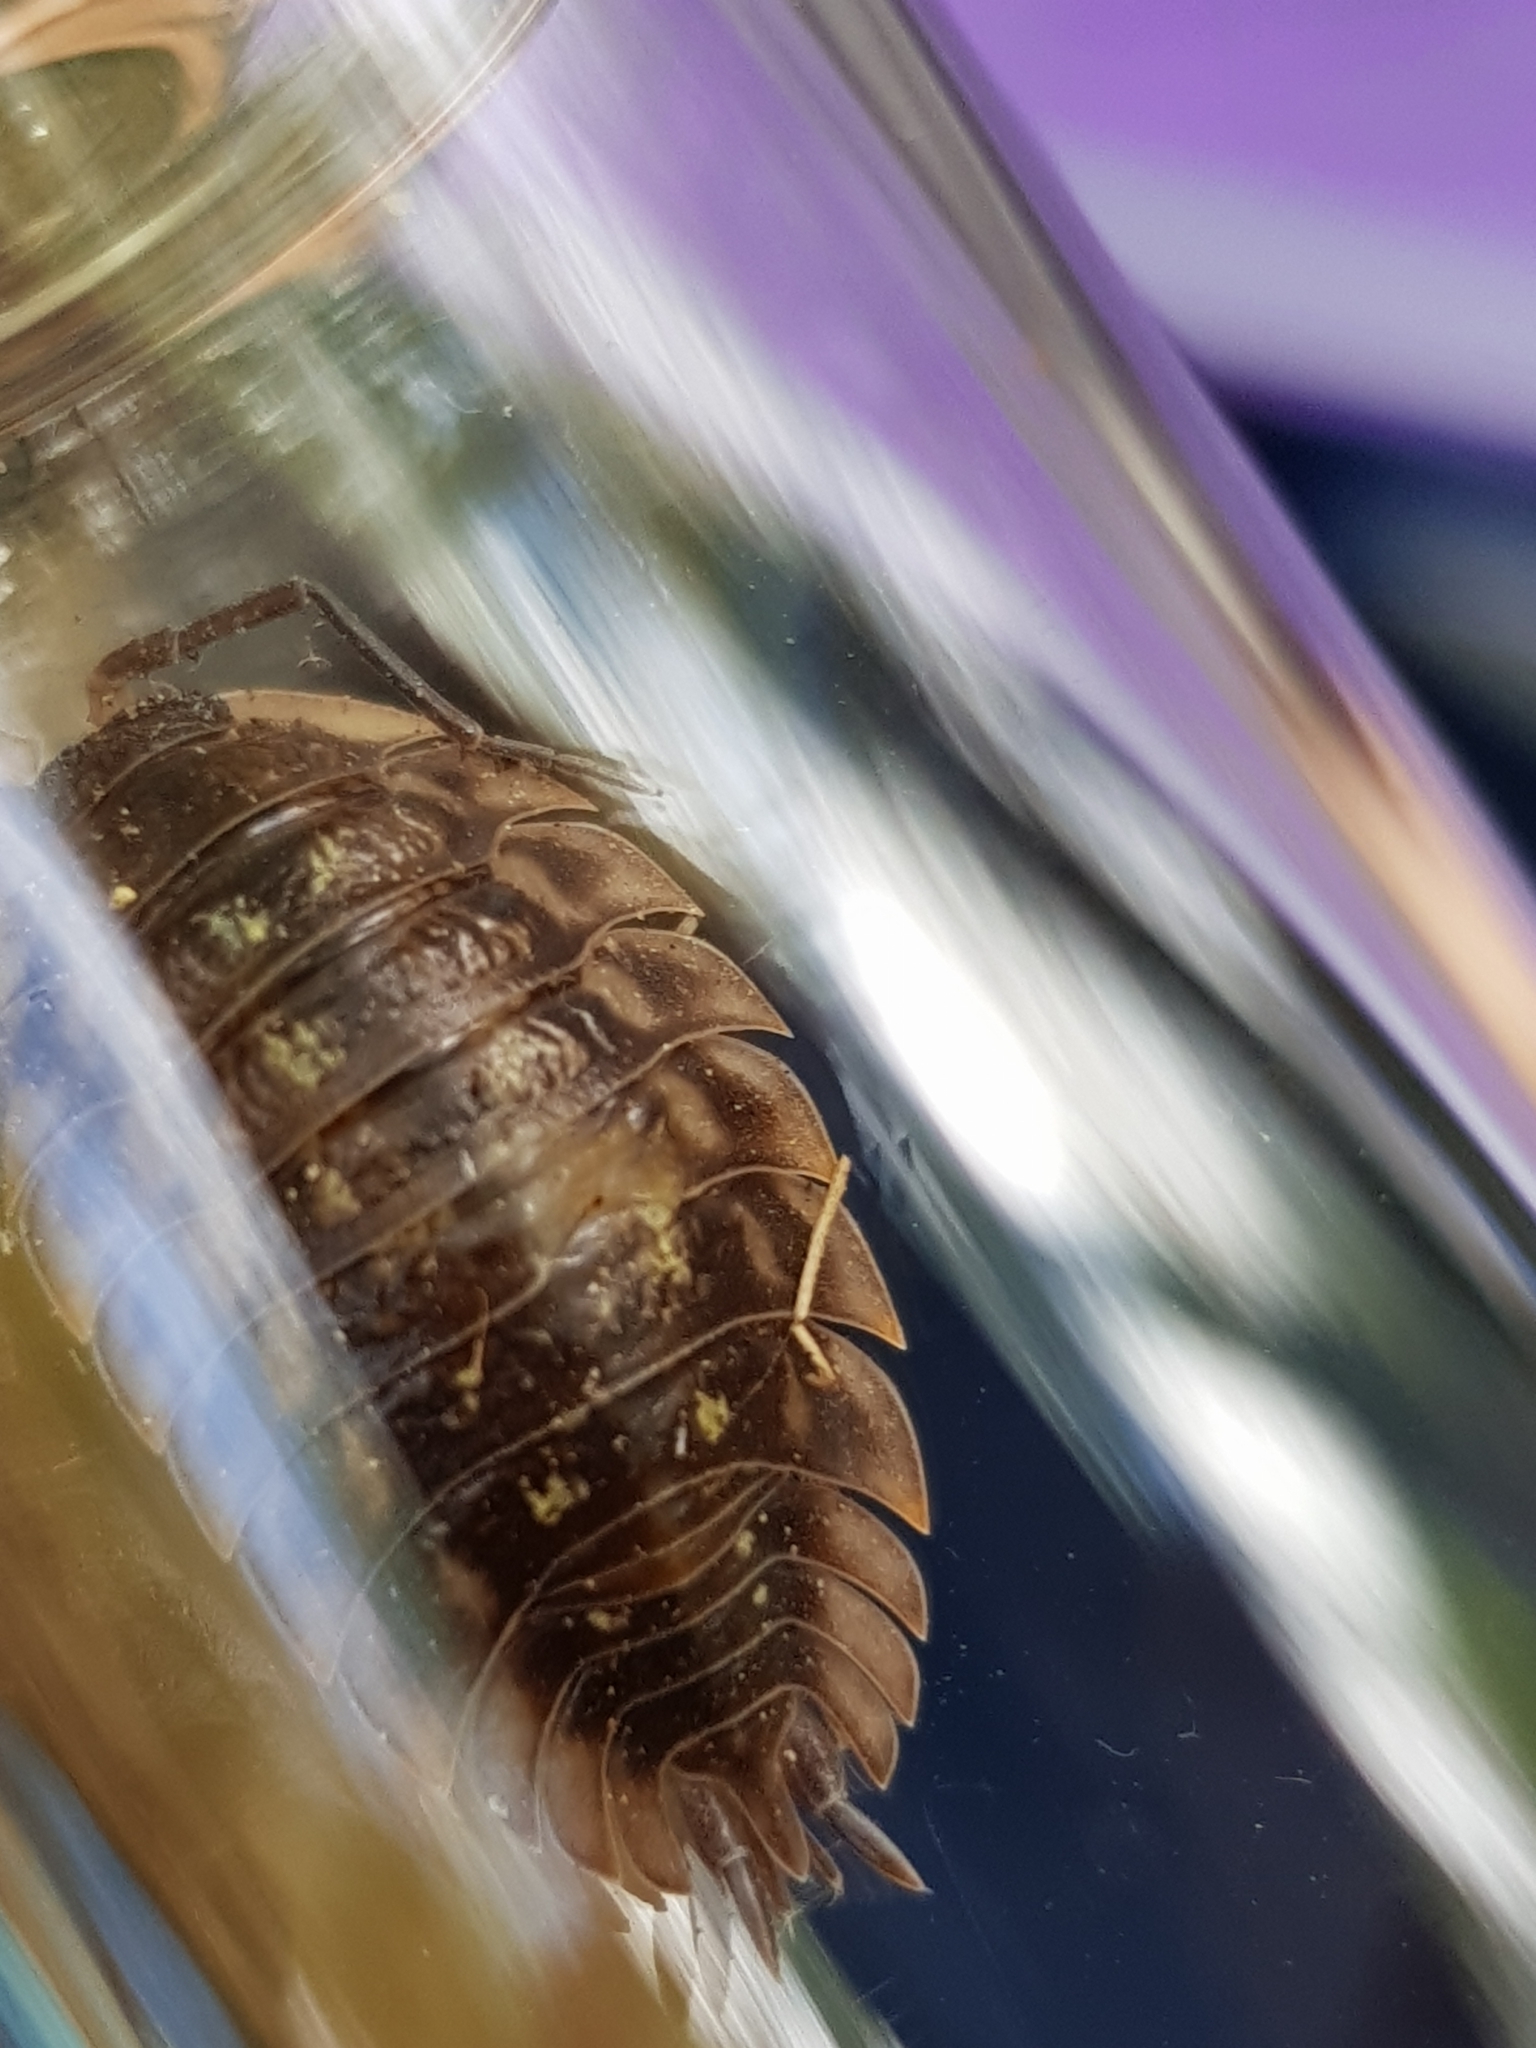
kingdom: Animalia
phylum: Arthropoda
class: Malacostraca
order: Isopoda
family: Oniscidae
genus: Oniscus
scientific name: Oniscus asellus
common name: Common shiny woodlouse
